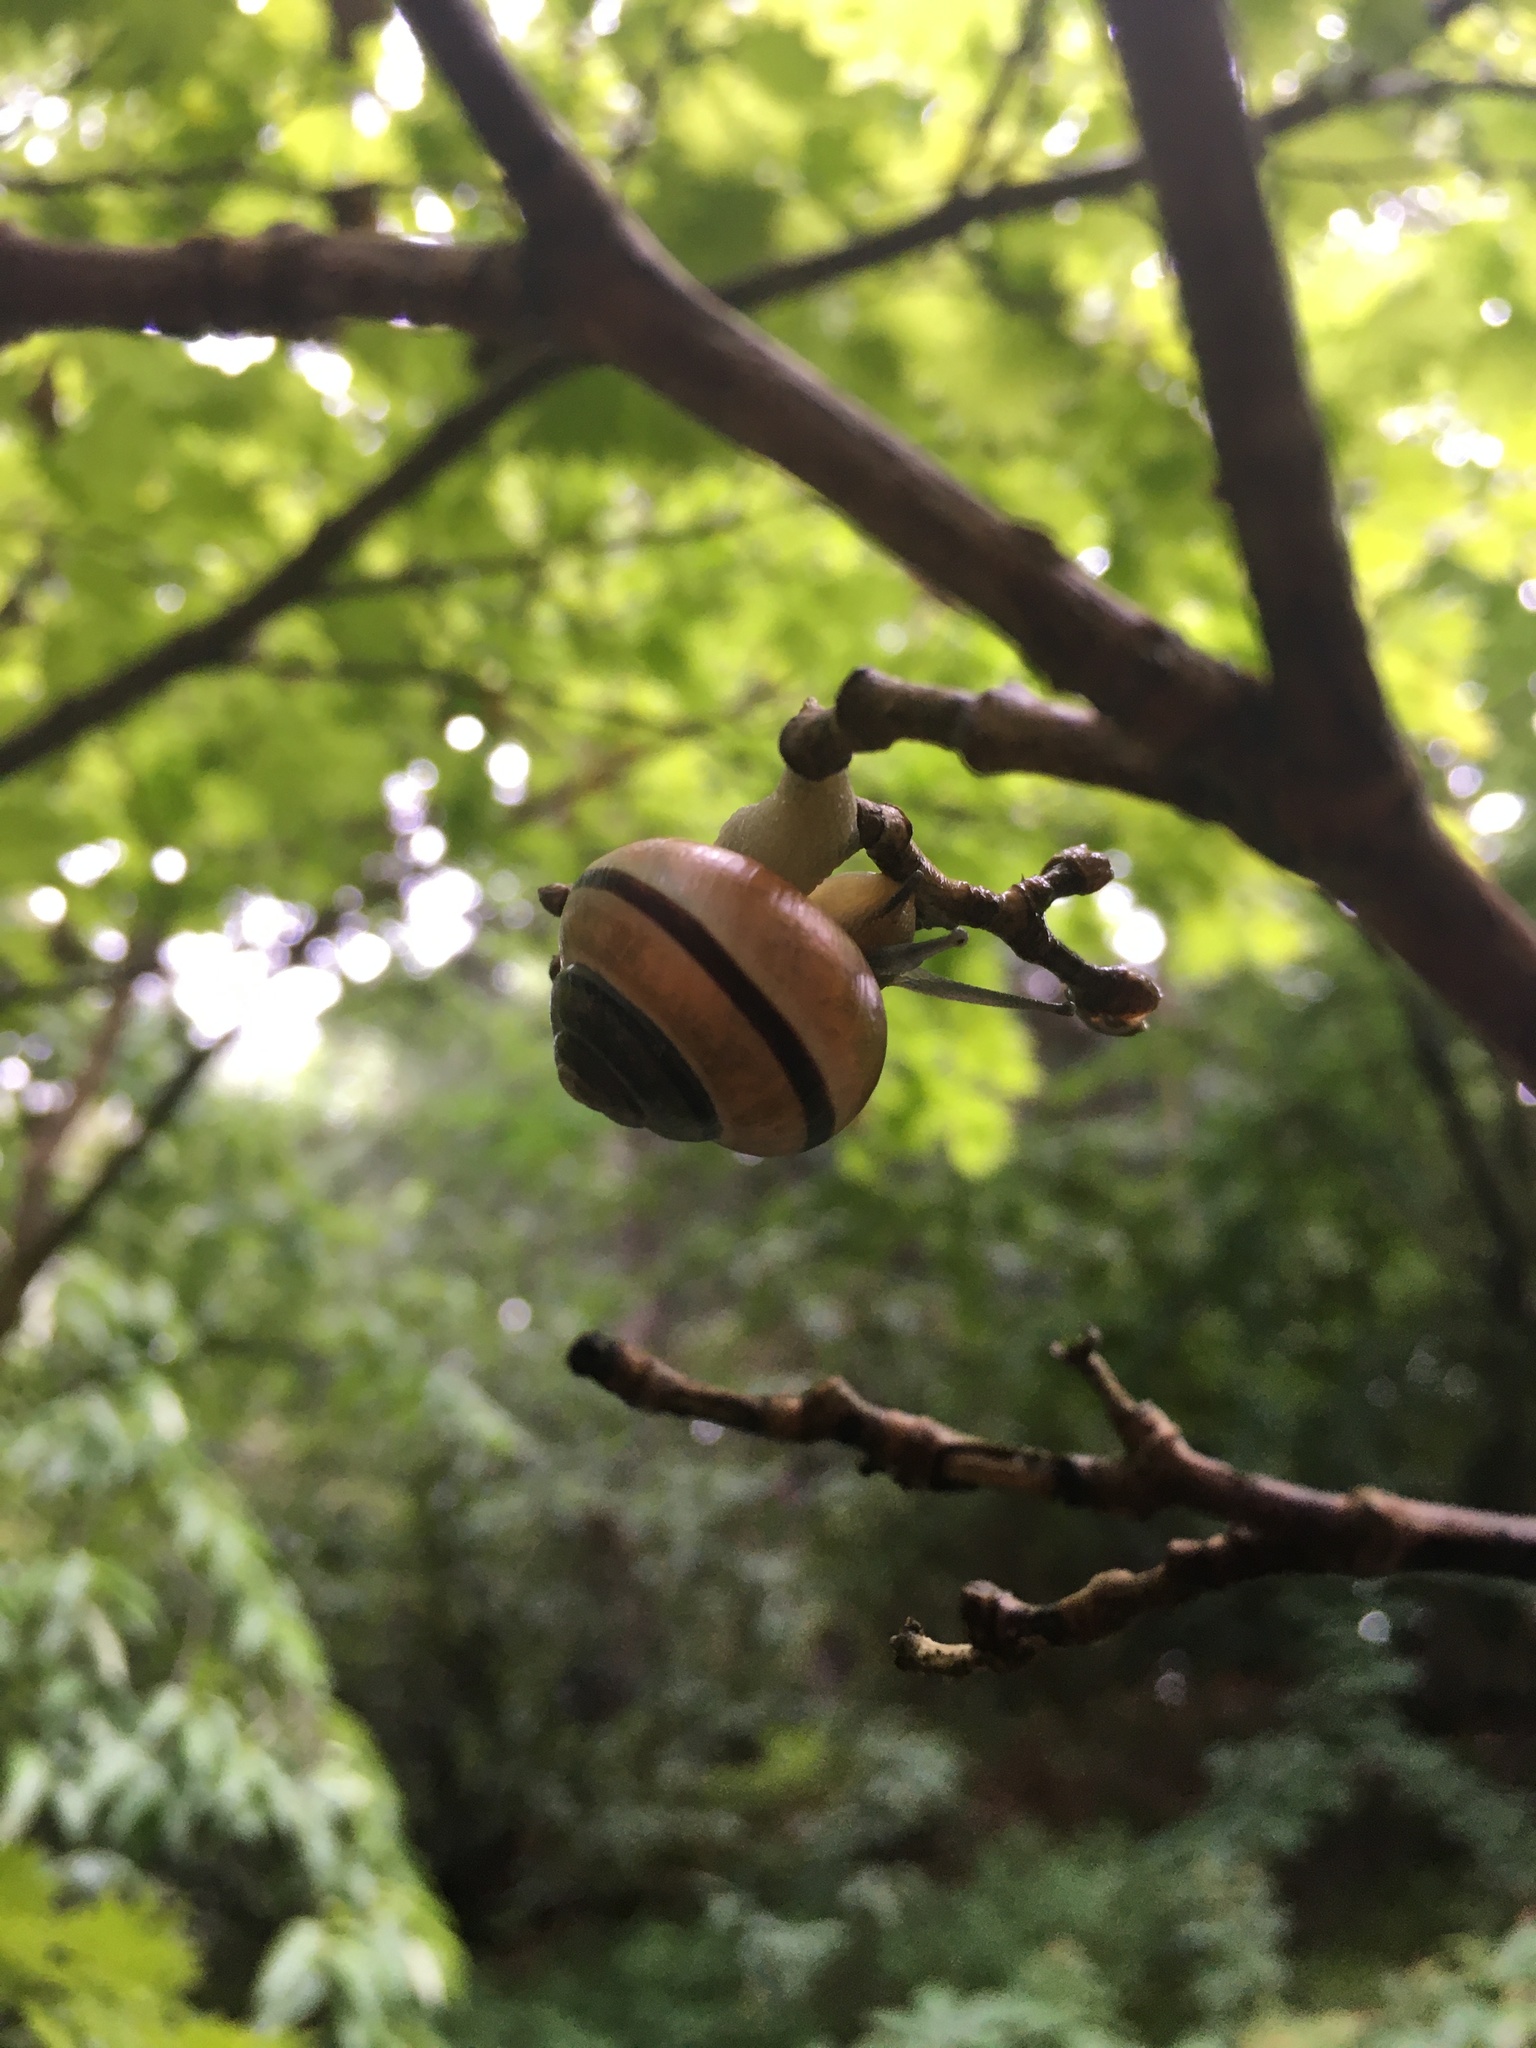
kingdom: Animalia
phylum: Mollusca
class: Gastropoda
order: Stylommatophora
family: Helicidae
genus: Cepaea
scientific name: Cepaea nemoralis
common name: Grovesnail
